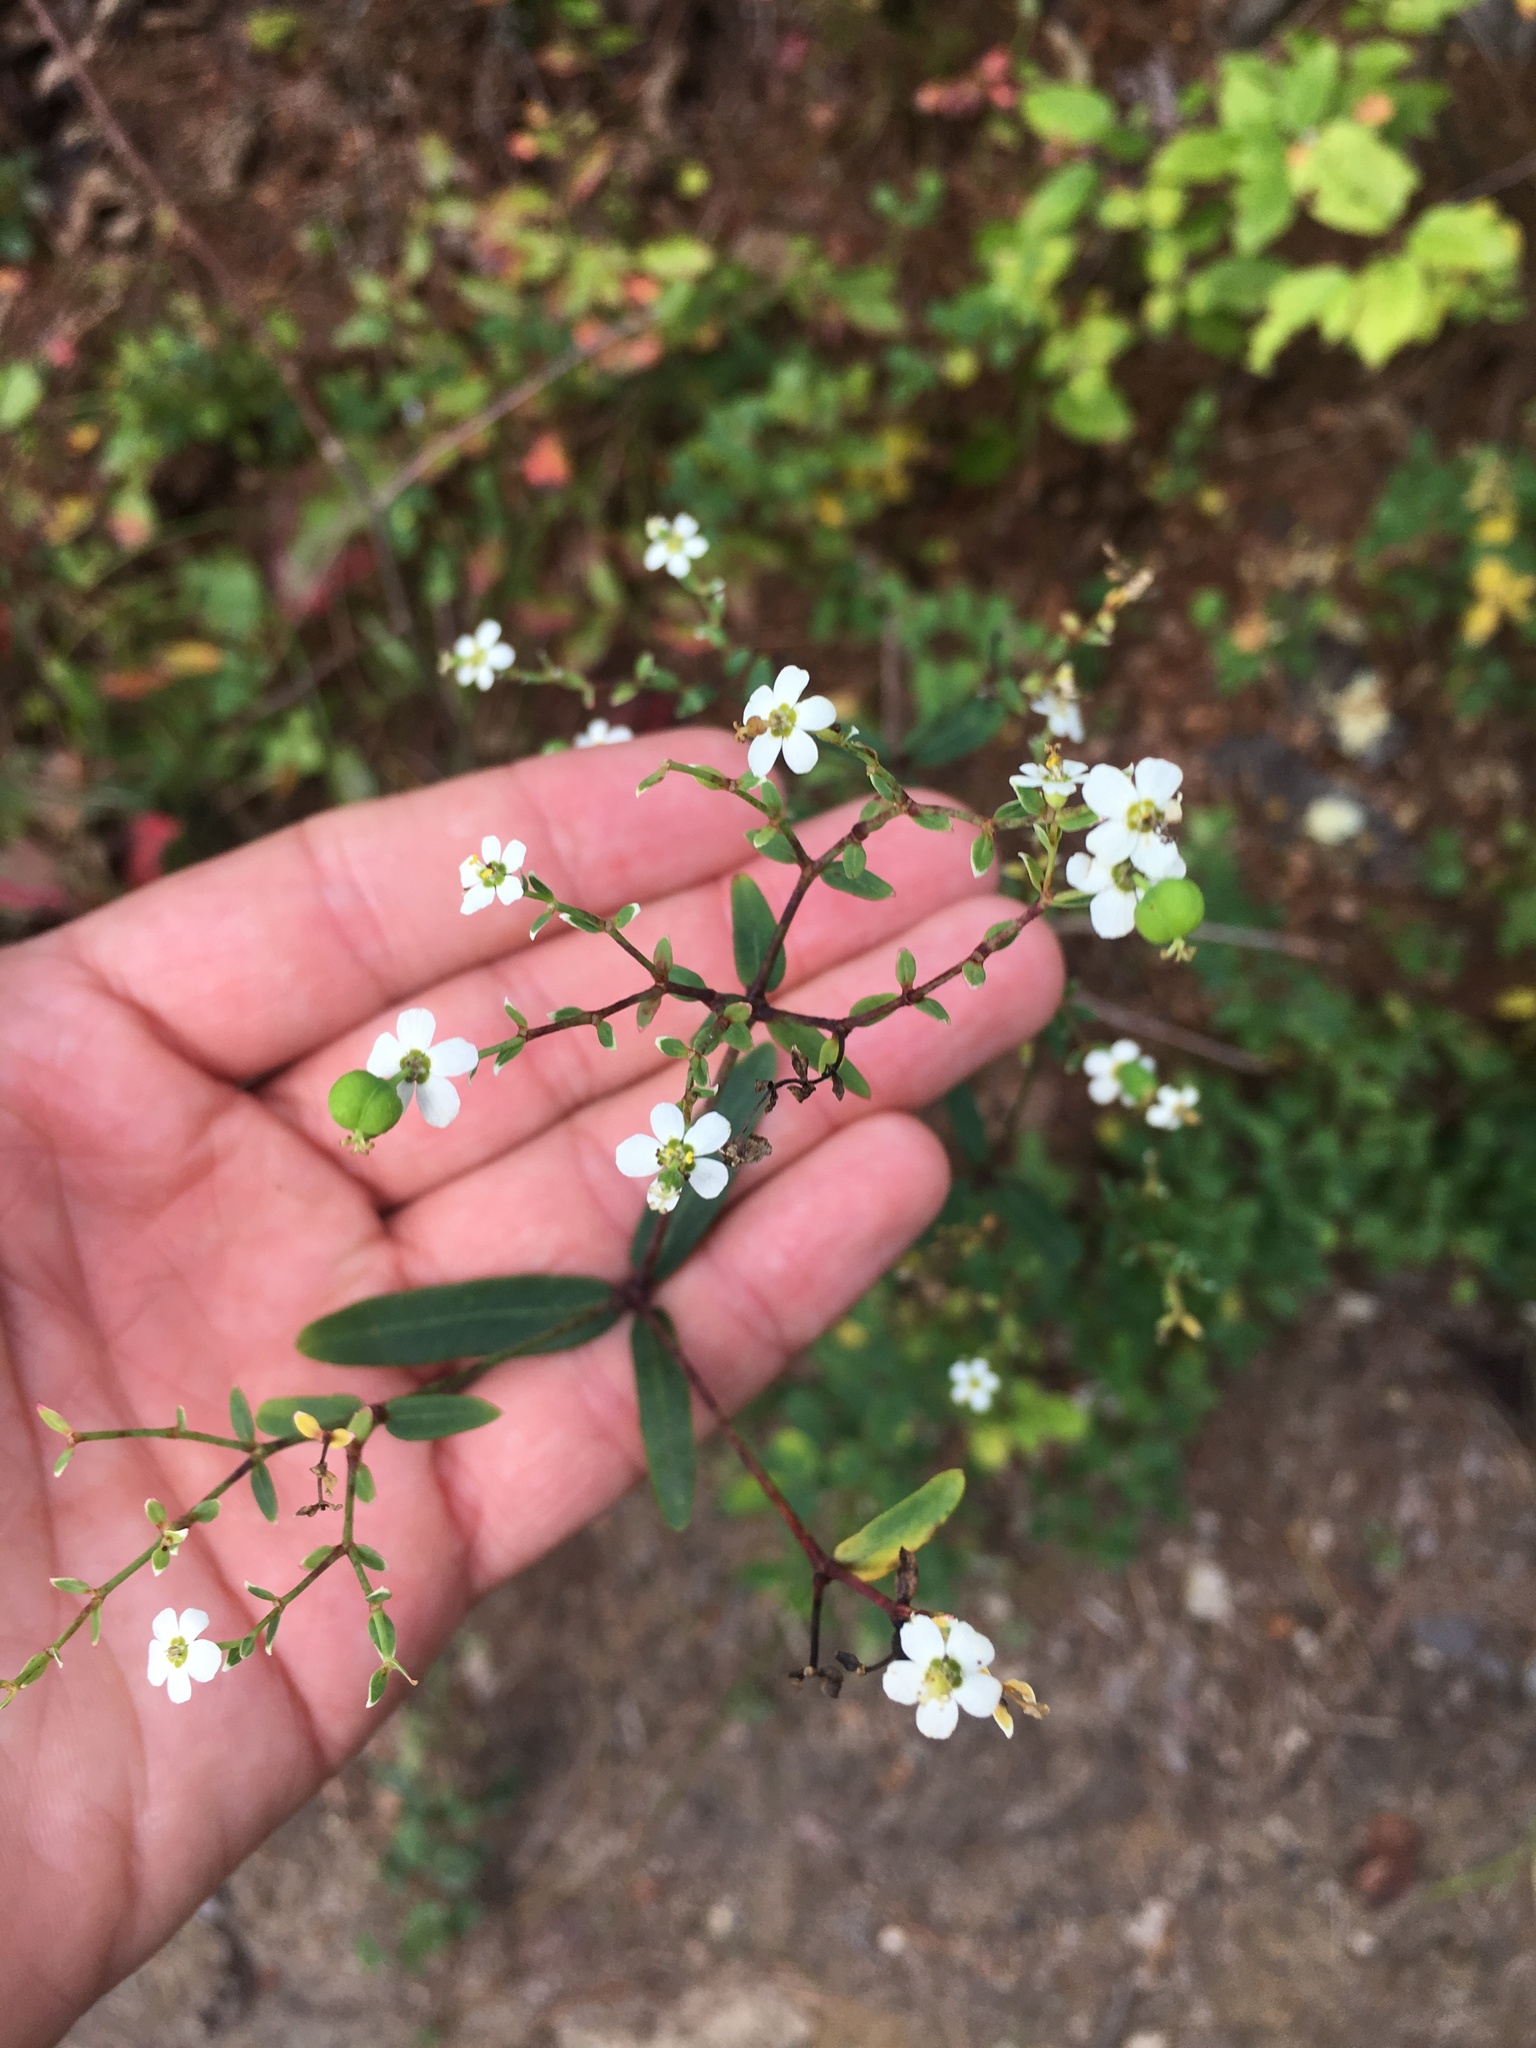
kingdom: Plantae
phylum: Tracheophyta
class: Magnoliopsida
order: Malpighiales
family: Euphorbiaceae
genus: Euphorbia
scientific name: Euphorbia corollata
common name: Flowering spurge
